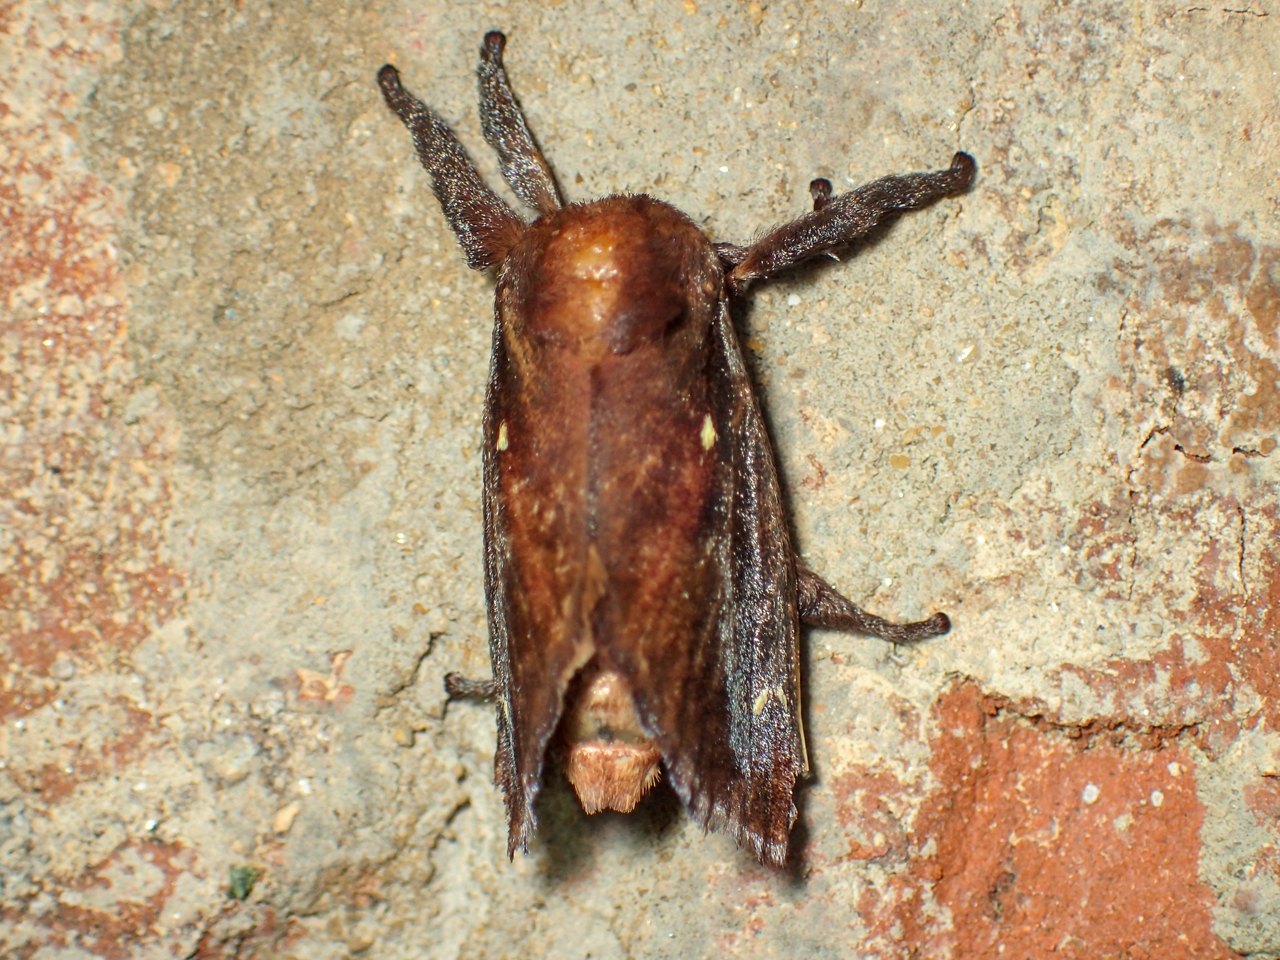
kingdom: Animalia
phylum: Arthropoda
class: Insecta
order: Lepidoptera
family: Limacodidae
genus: Acharia
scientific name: Acharia stimulea
